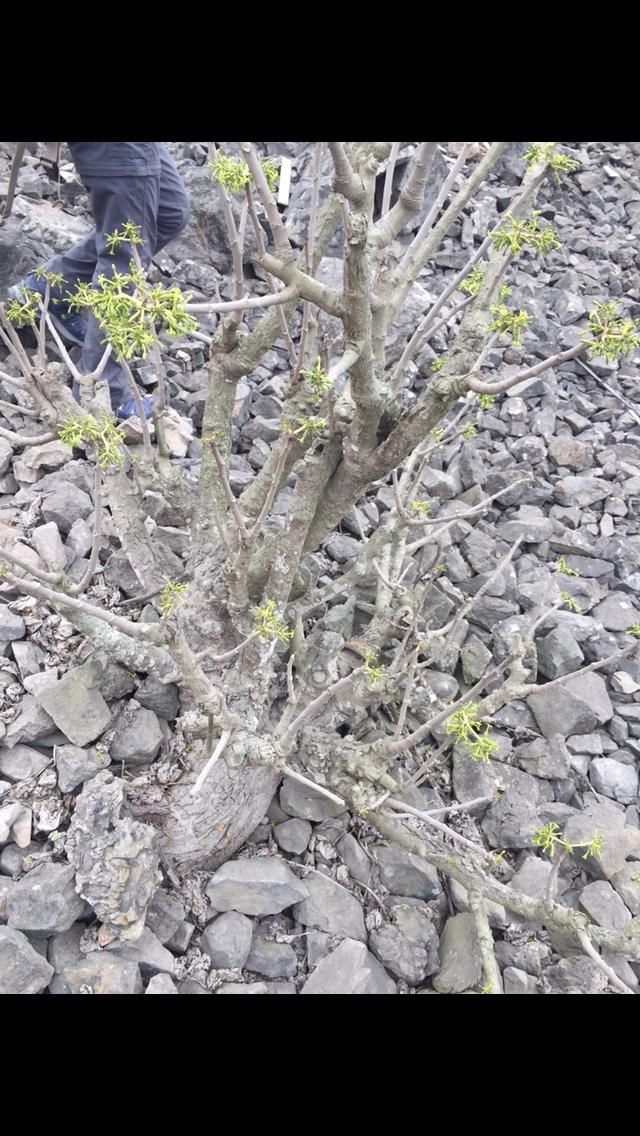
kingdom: Plantae
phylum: Tracheophyta
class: Magnoliopsida
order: Brassicales
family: Caricaceae
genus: Vasconcellea
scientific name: Vasconcellea candicans
